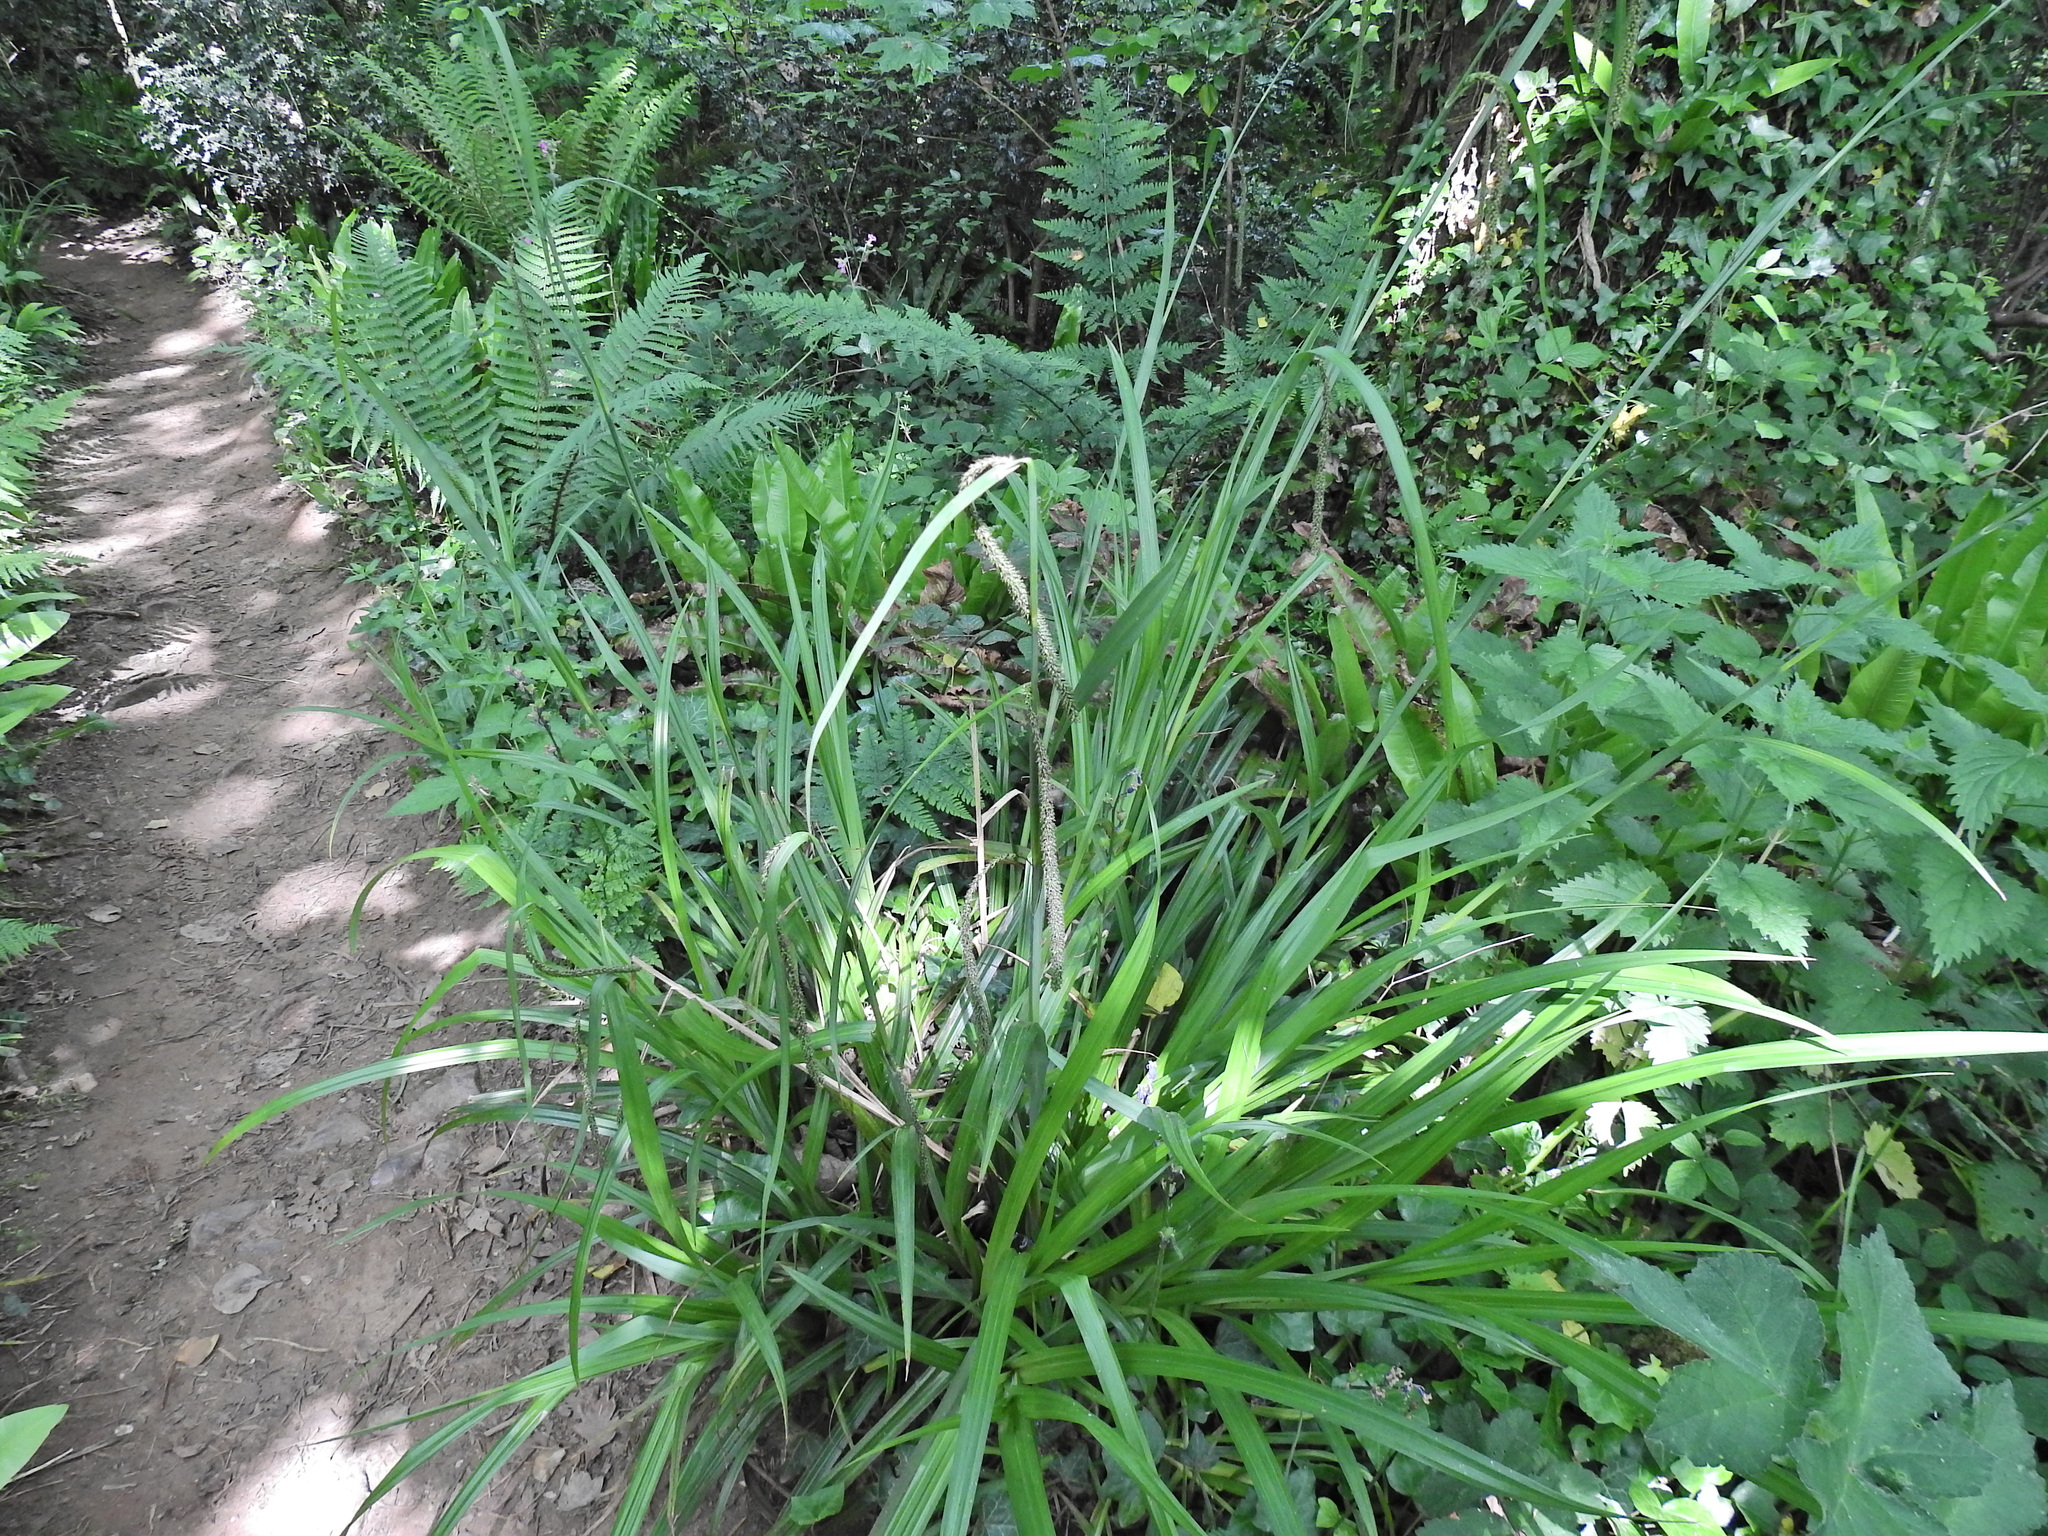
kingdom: Plantae
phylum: Tracheophyta
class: Liliopsida
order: Poales
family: Cyperaceae
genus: Carex
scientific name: Carex pendula
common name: Pendulous sedge
